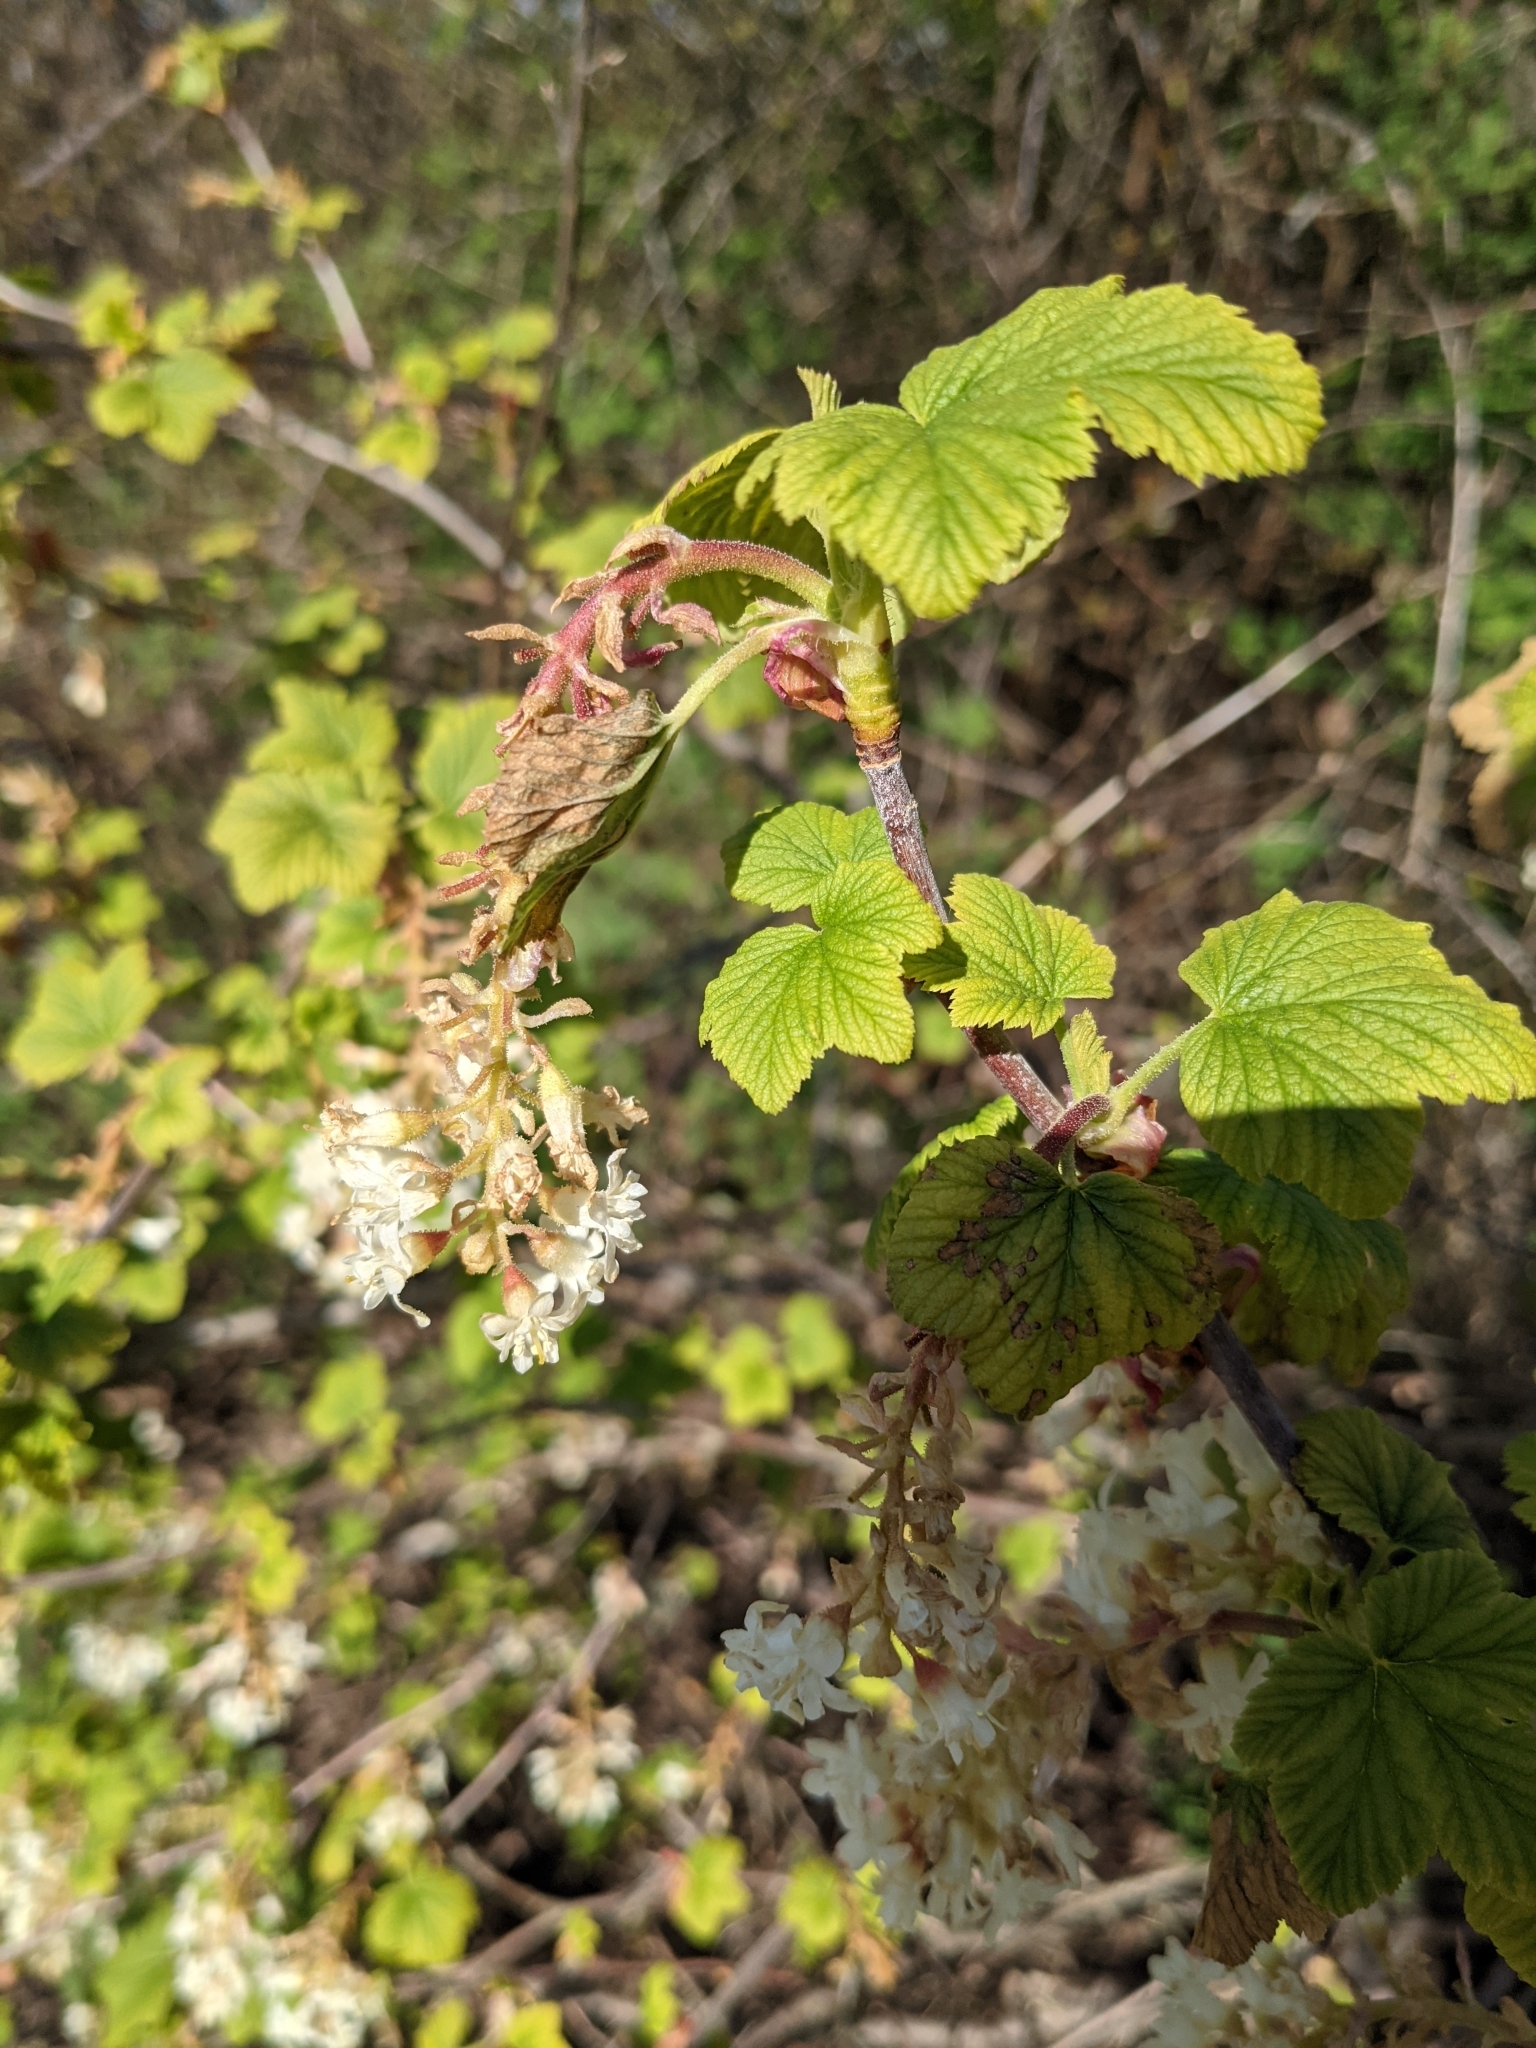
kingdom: Plantae
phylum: Tracheophyta
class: Magnoliopsida
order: Saxifragales
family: Grossulariaceae
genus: Ribes
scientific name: Ribes sanguineum
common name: Flowering currant
